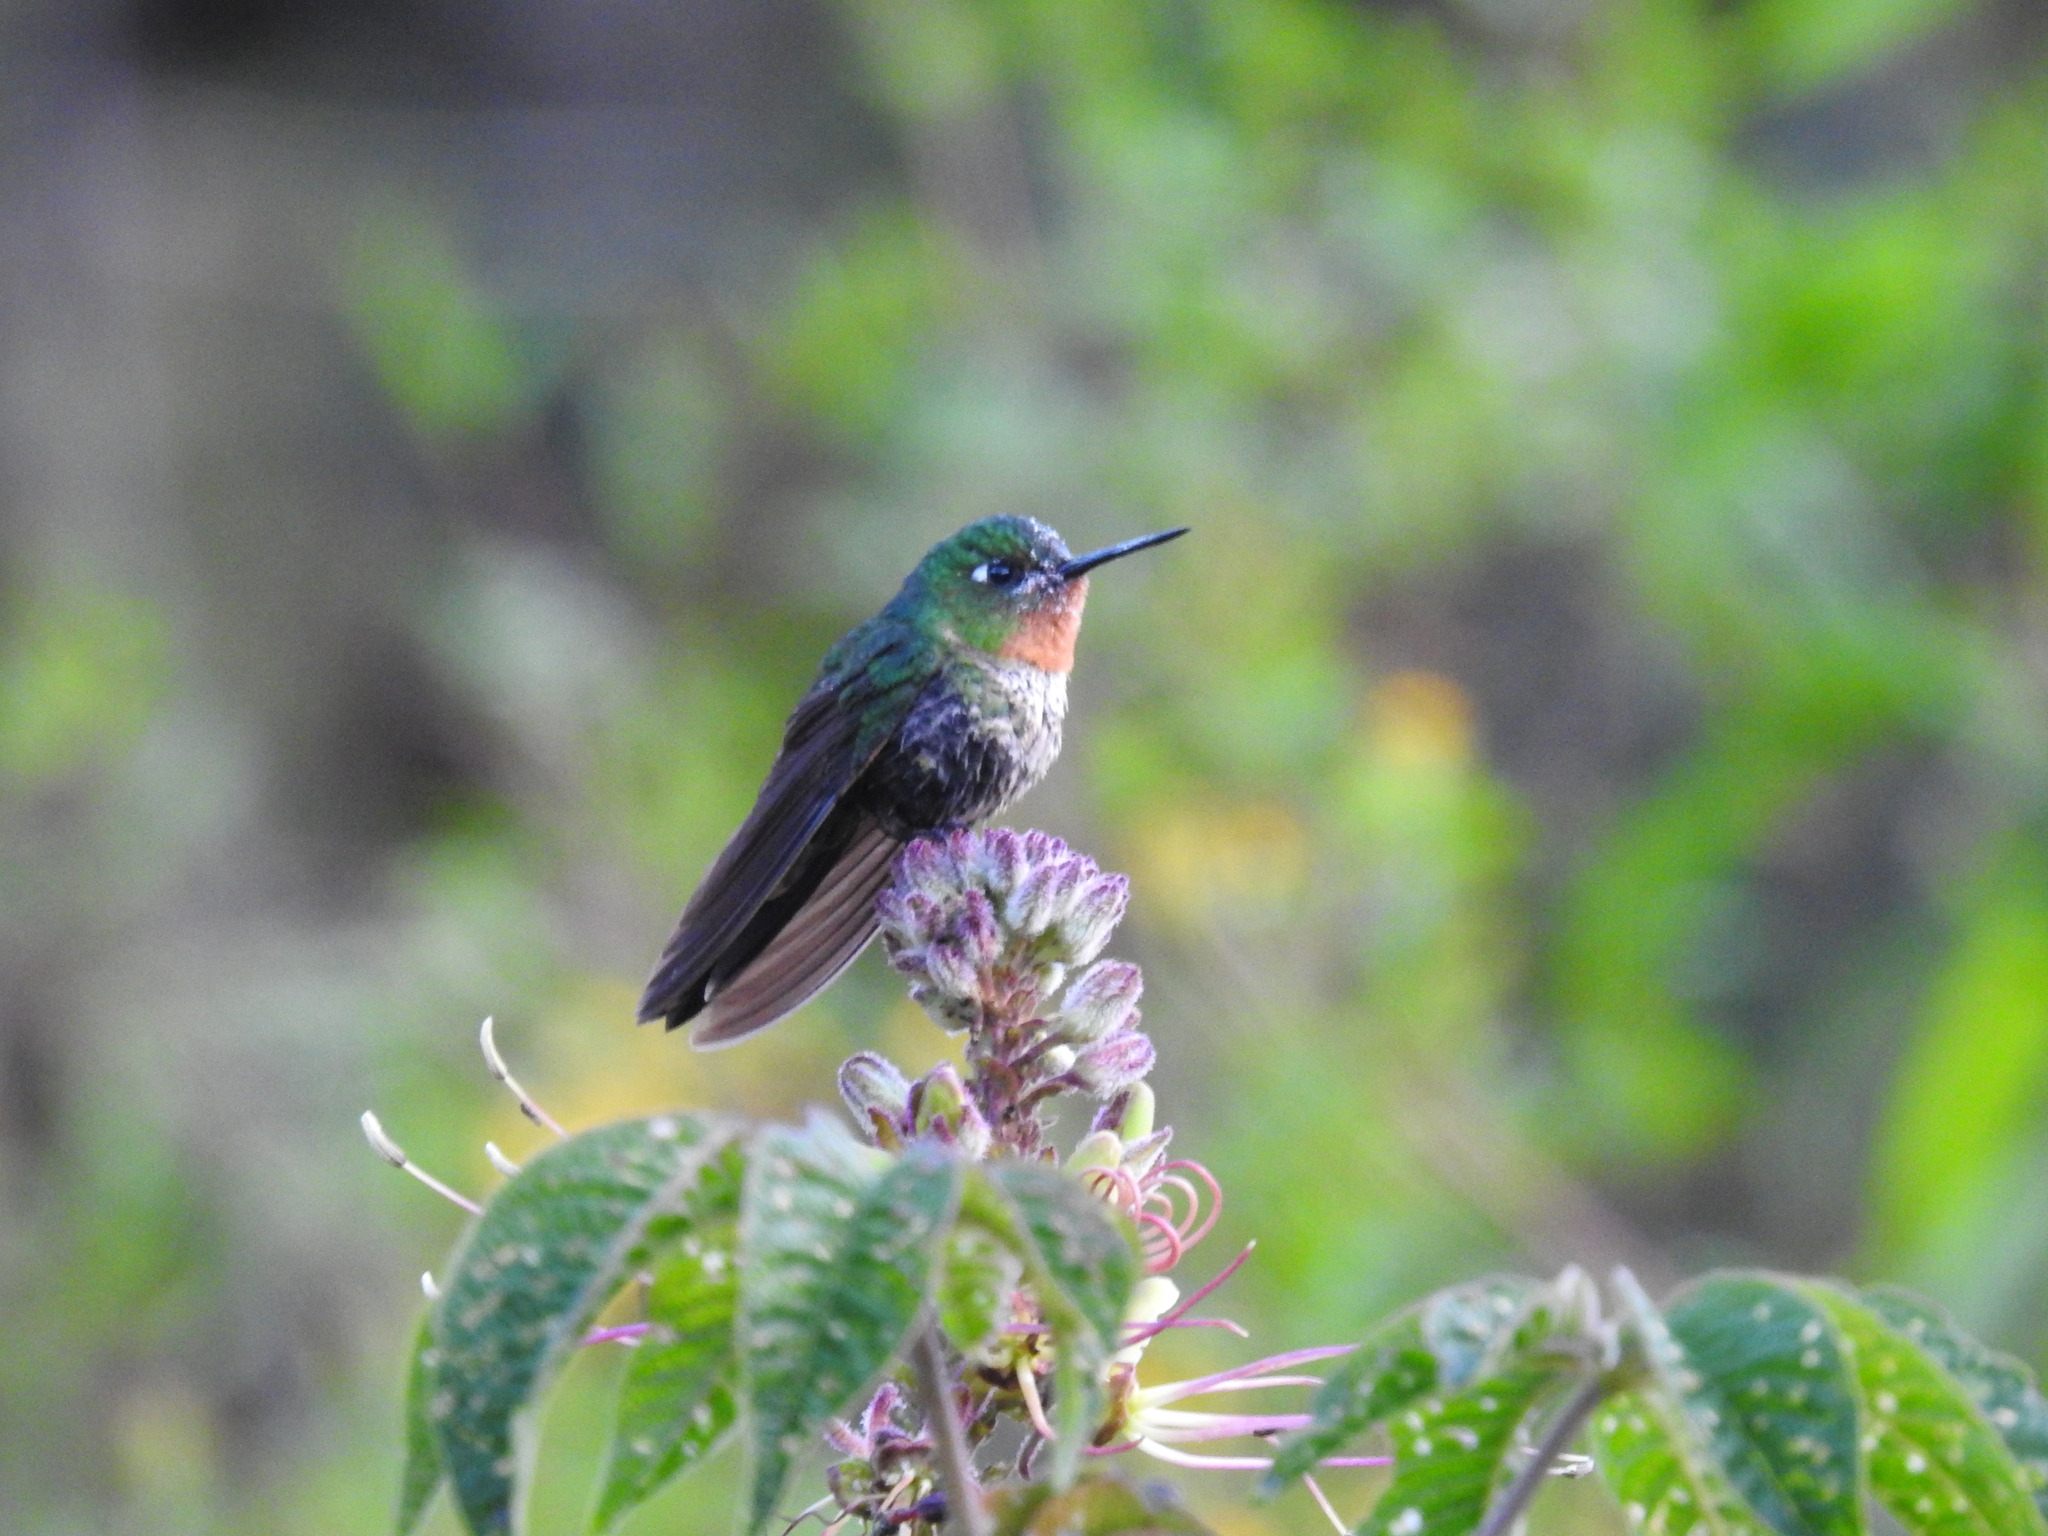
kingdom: Animalia
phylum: Chordata
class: Aves
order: Apodiformes
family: Trochilidae
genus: Metallura
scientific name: Metallura tyrianthina
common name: Tyrian metaltail
